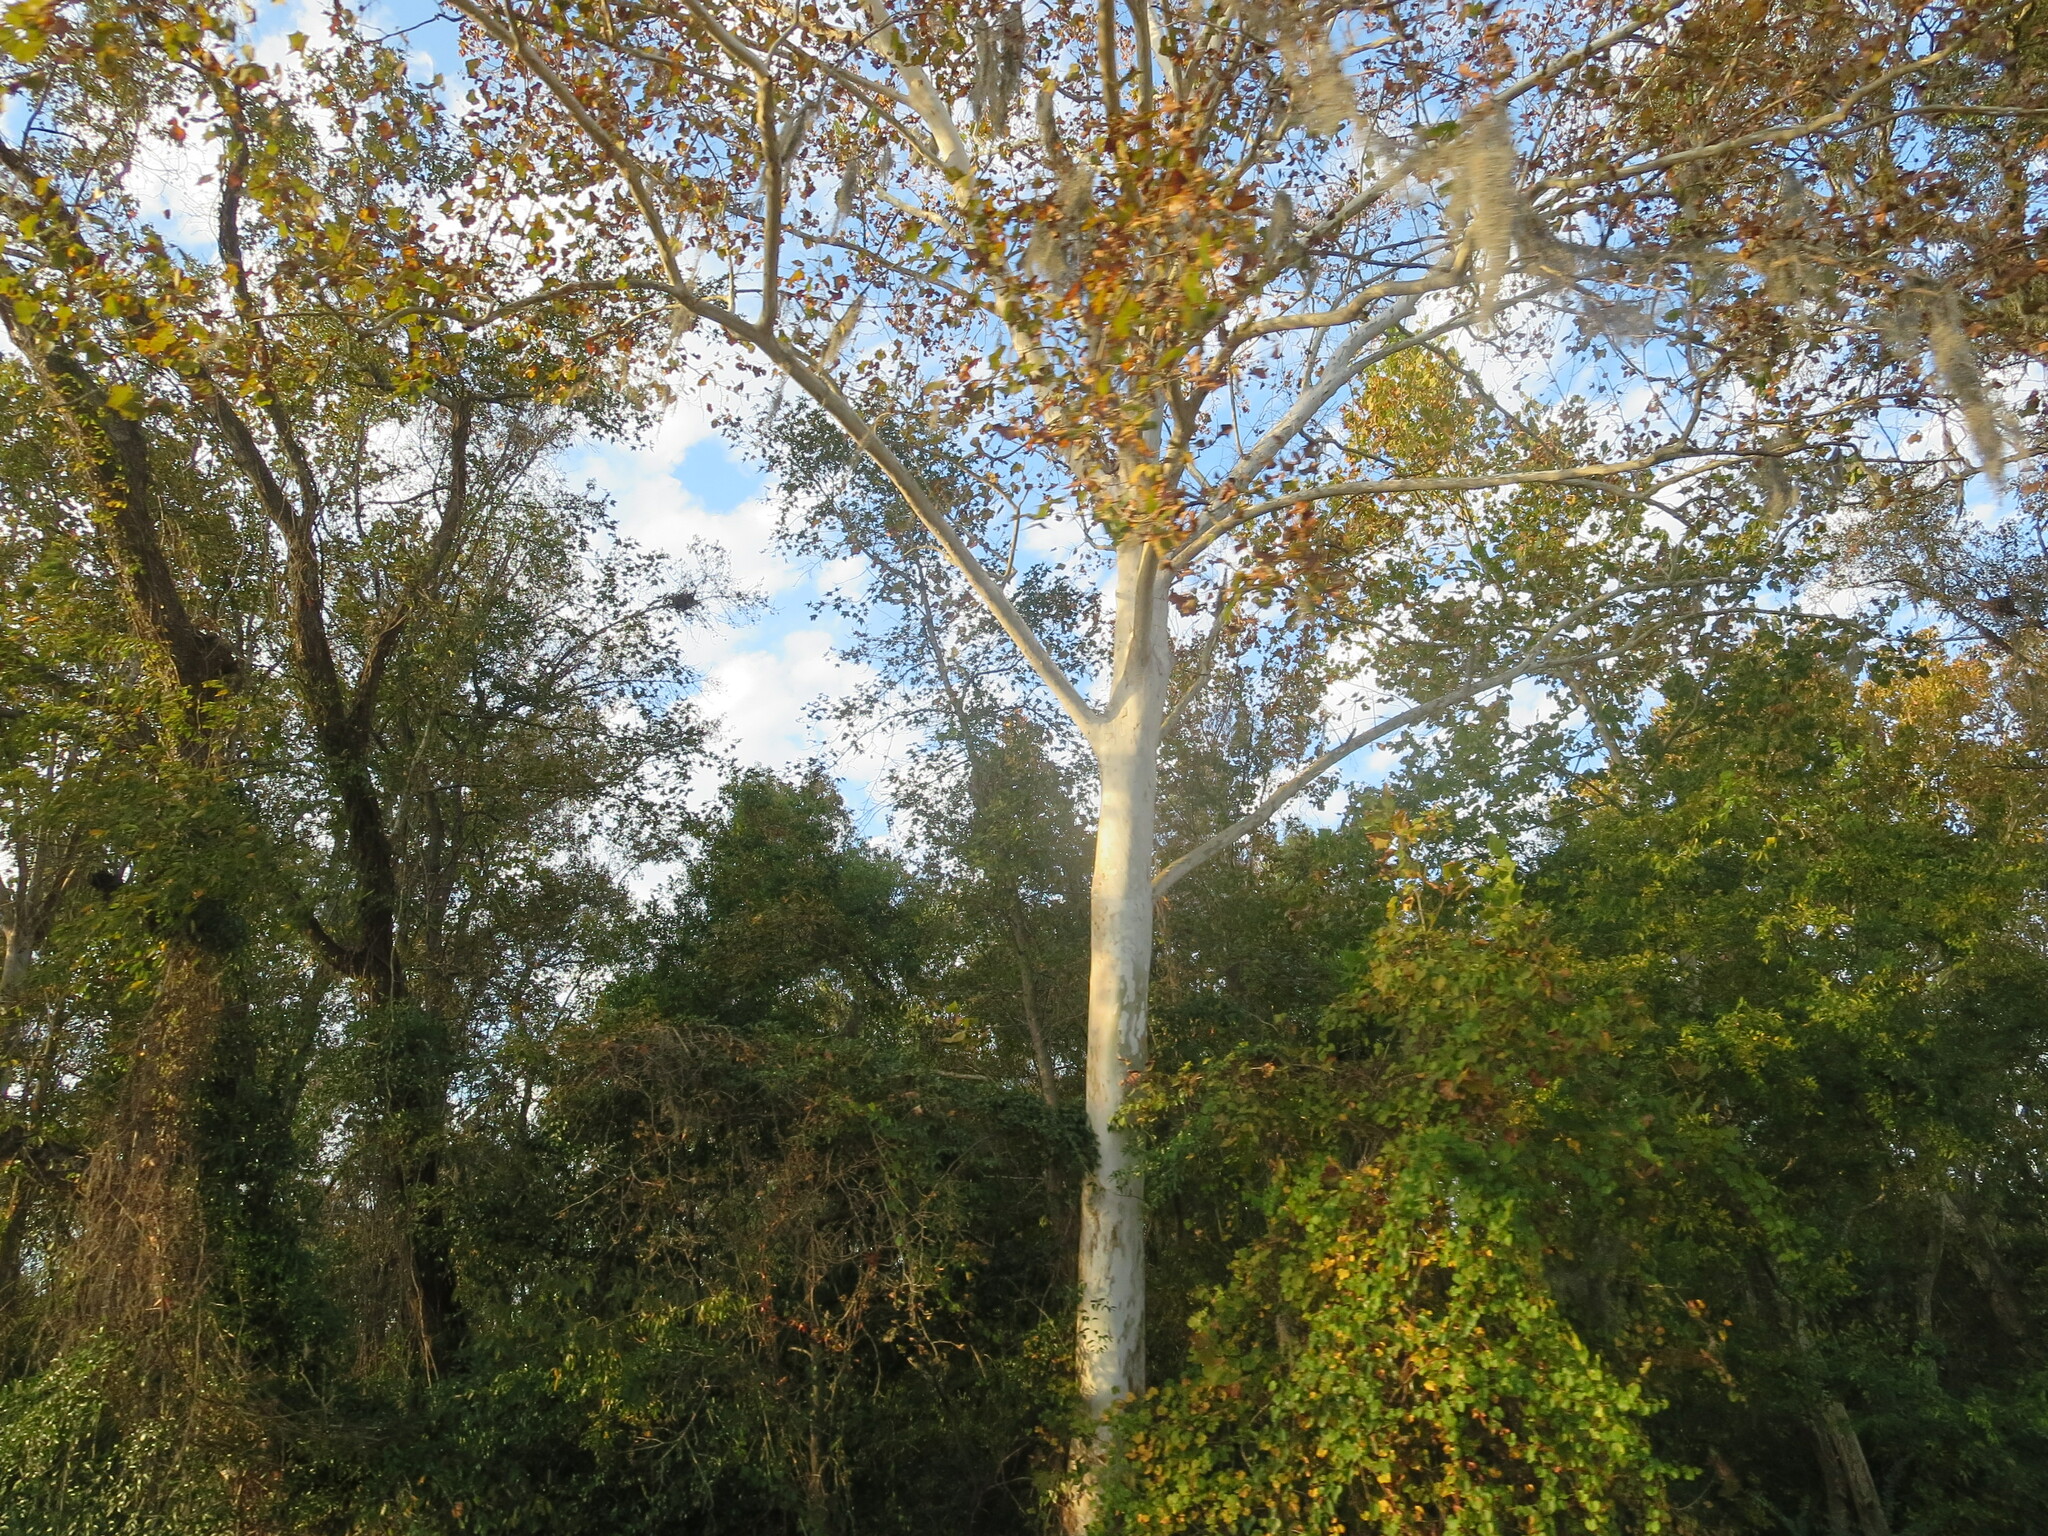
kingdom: Plantae
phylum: Tracheophyta
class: Magnoliopsida
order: Proteales
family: Platanaceae
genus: Platanus
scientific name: Platanus occidentalis
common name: American sycamore
